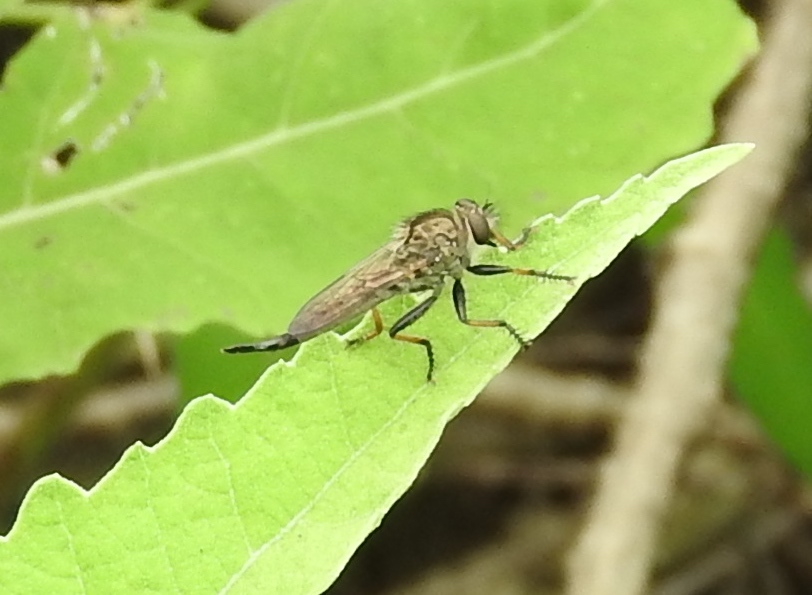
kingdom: Animalia
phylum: Arthropoda
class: Insecta
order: Diptera
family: Asilidae
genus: Efferia
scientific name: Efferia
